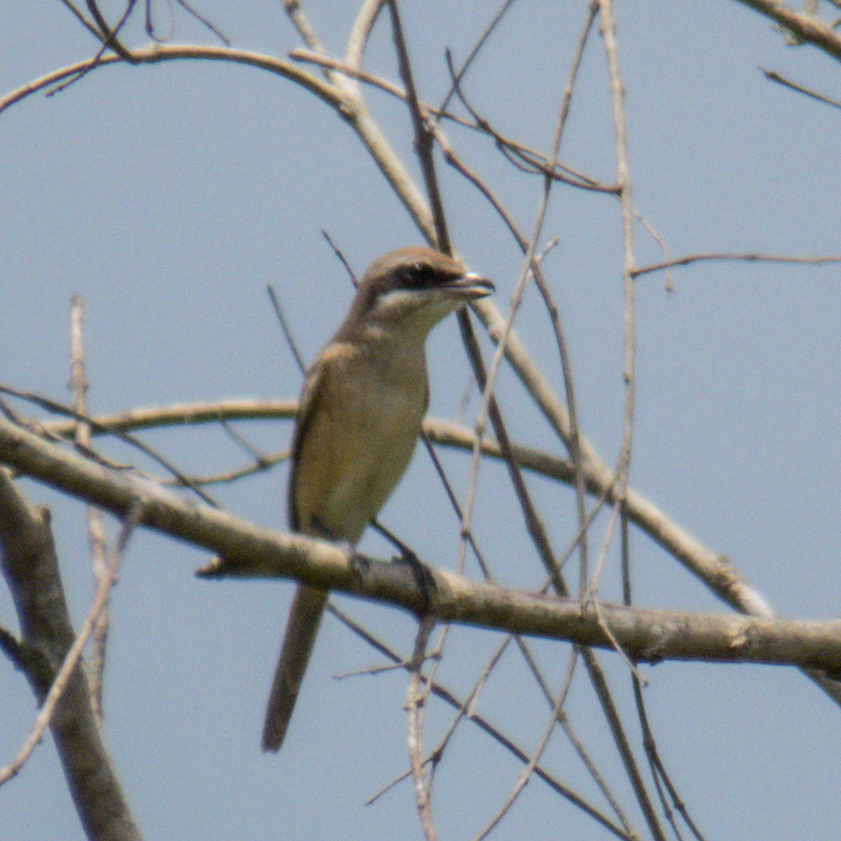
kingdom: Animalia
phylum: Chordata
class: Aves
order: Passeriformes
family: Laniidae
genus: Lanius
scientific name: Lanius cristatus
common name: Brown shrike
